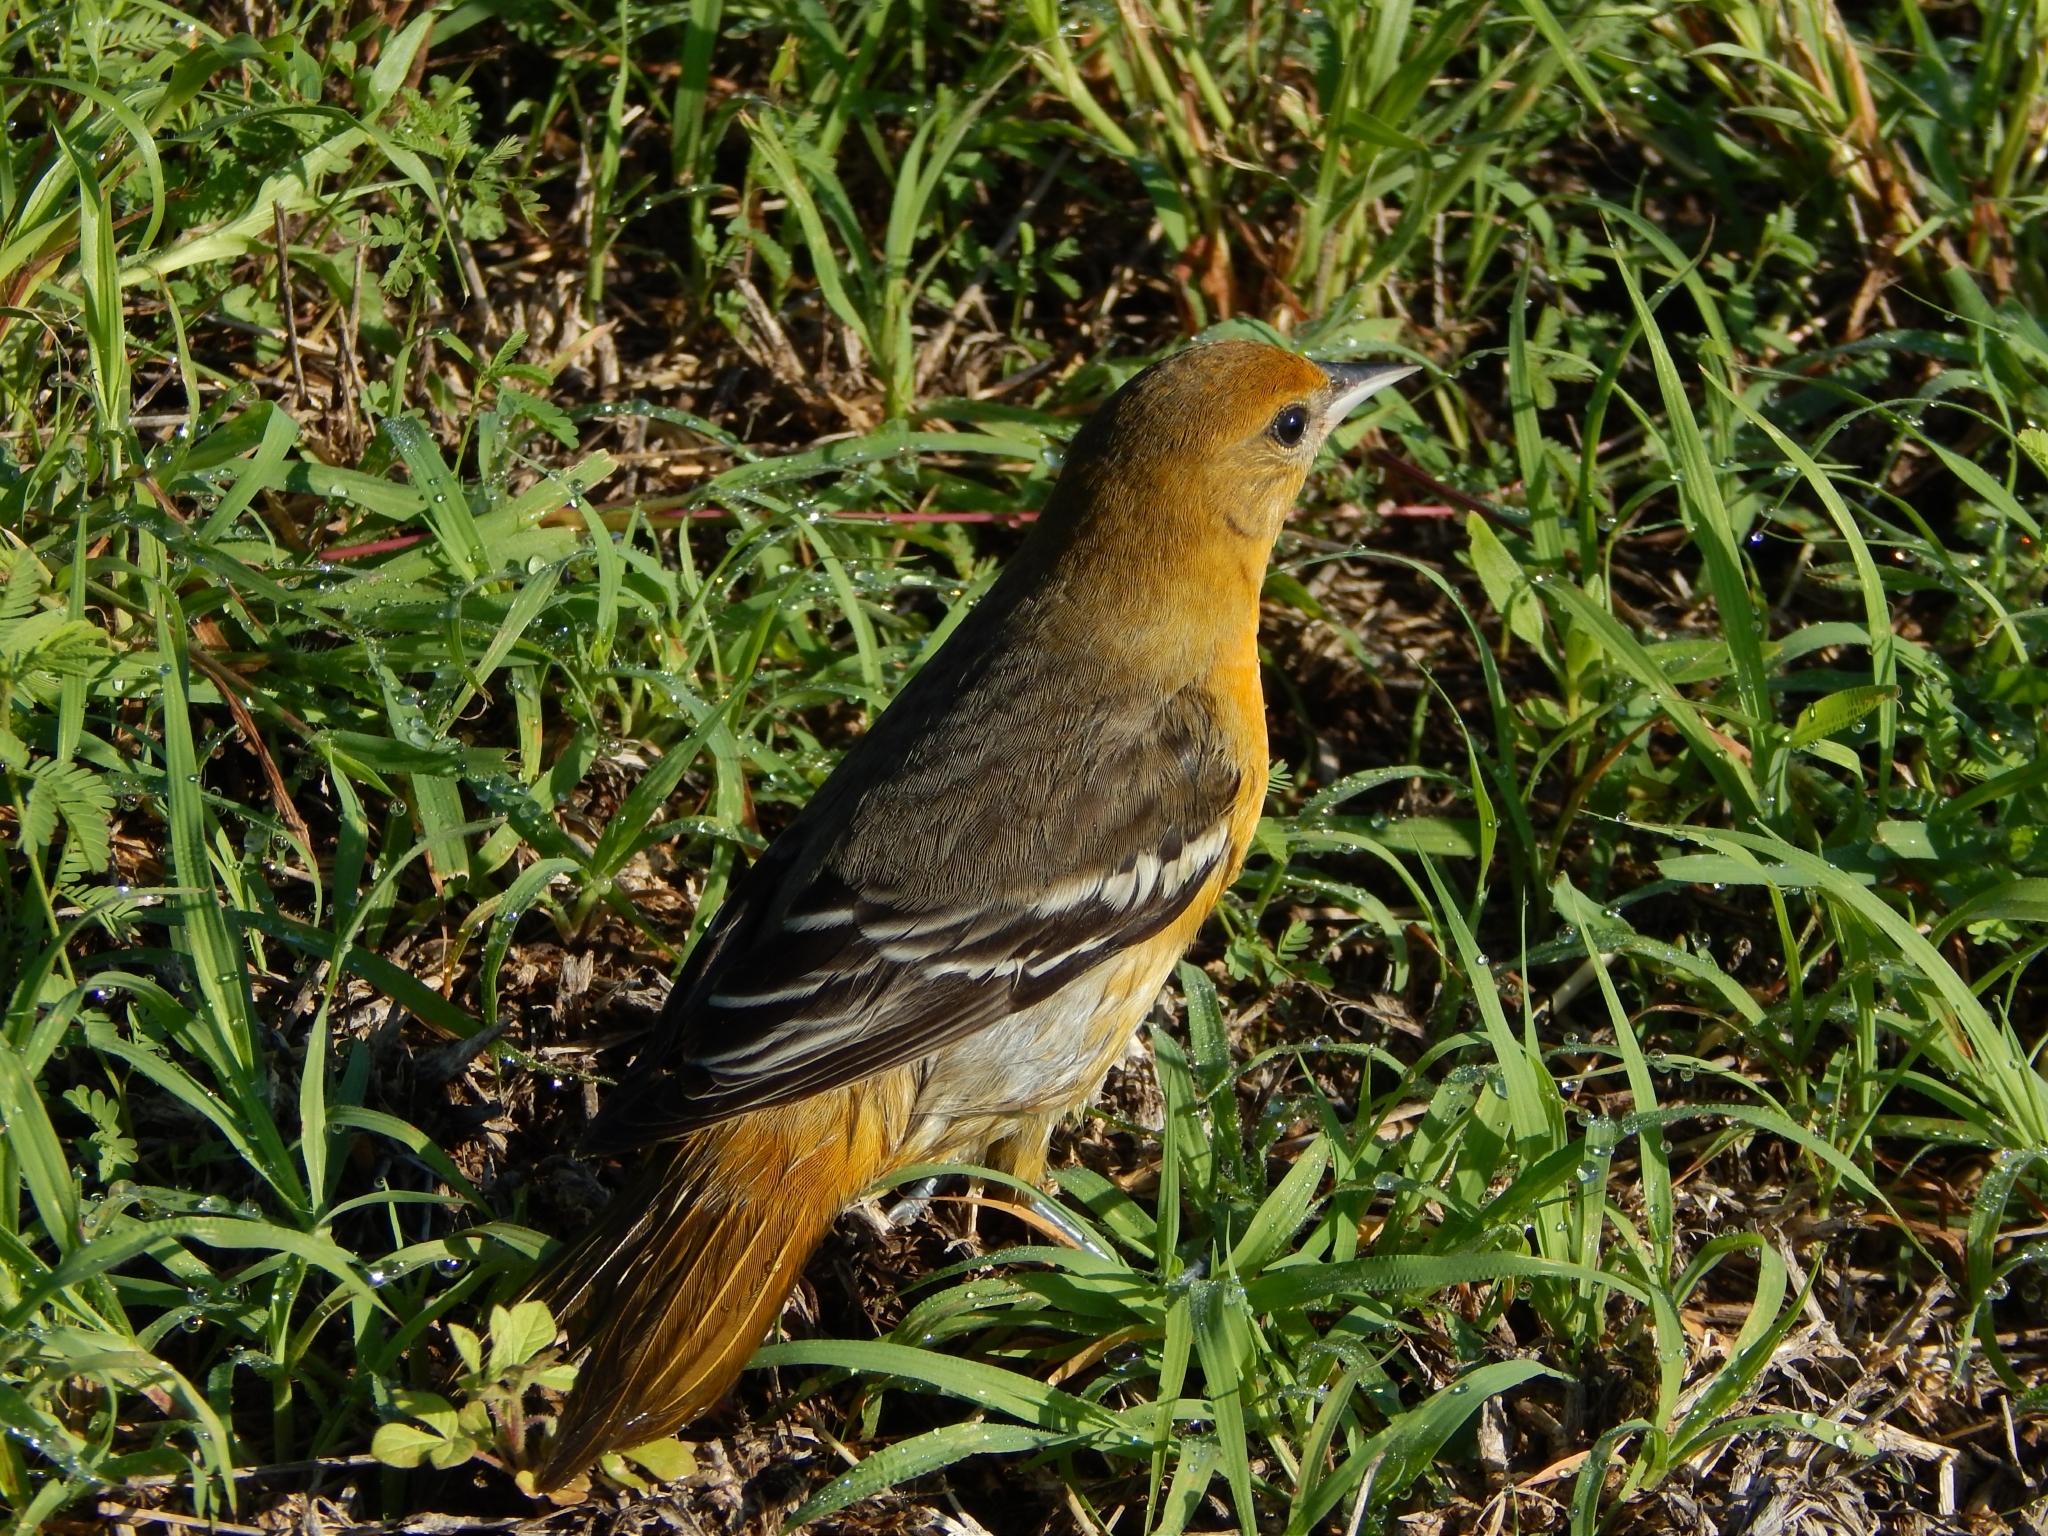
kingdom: Animalia
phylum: Chordata
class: Aves
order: Passeriformes
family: Icteridae
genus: Icterus
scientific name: Icterus galbula
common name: Baltimore oriole
